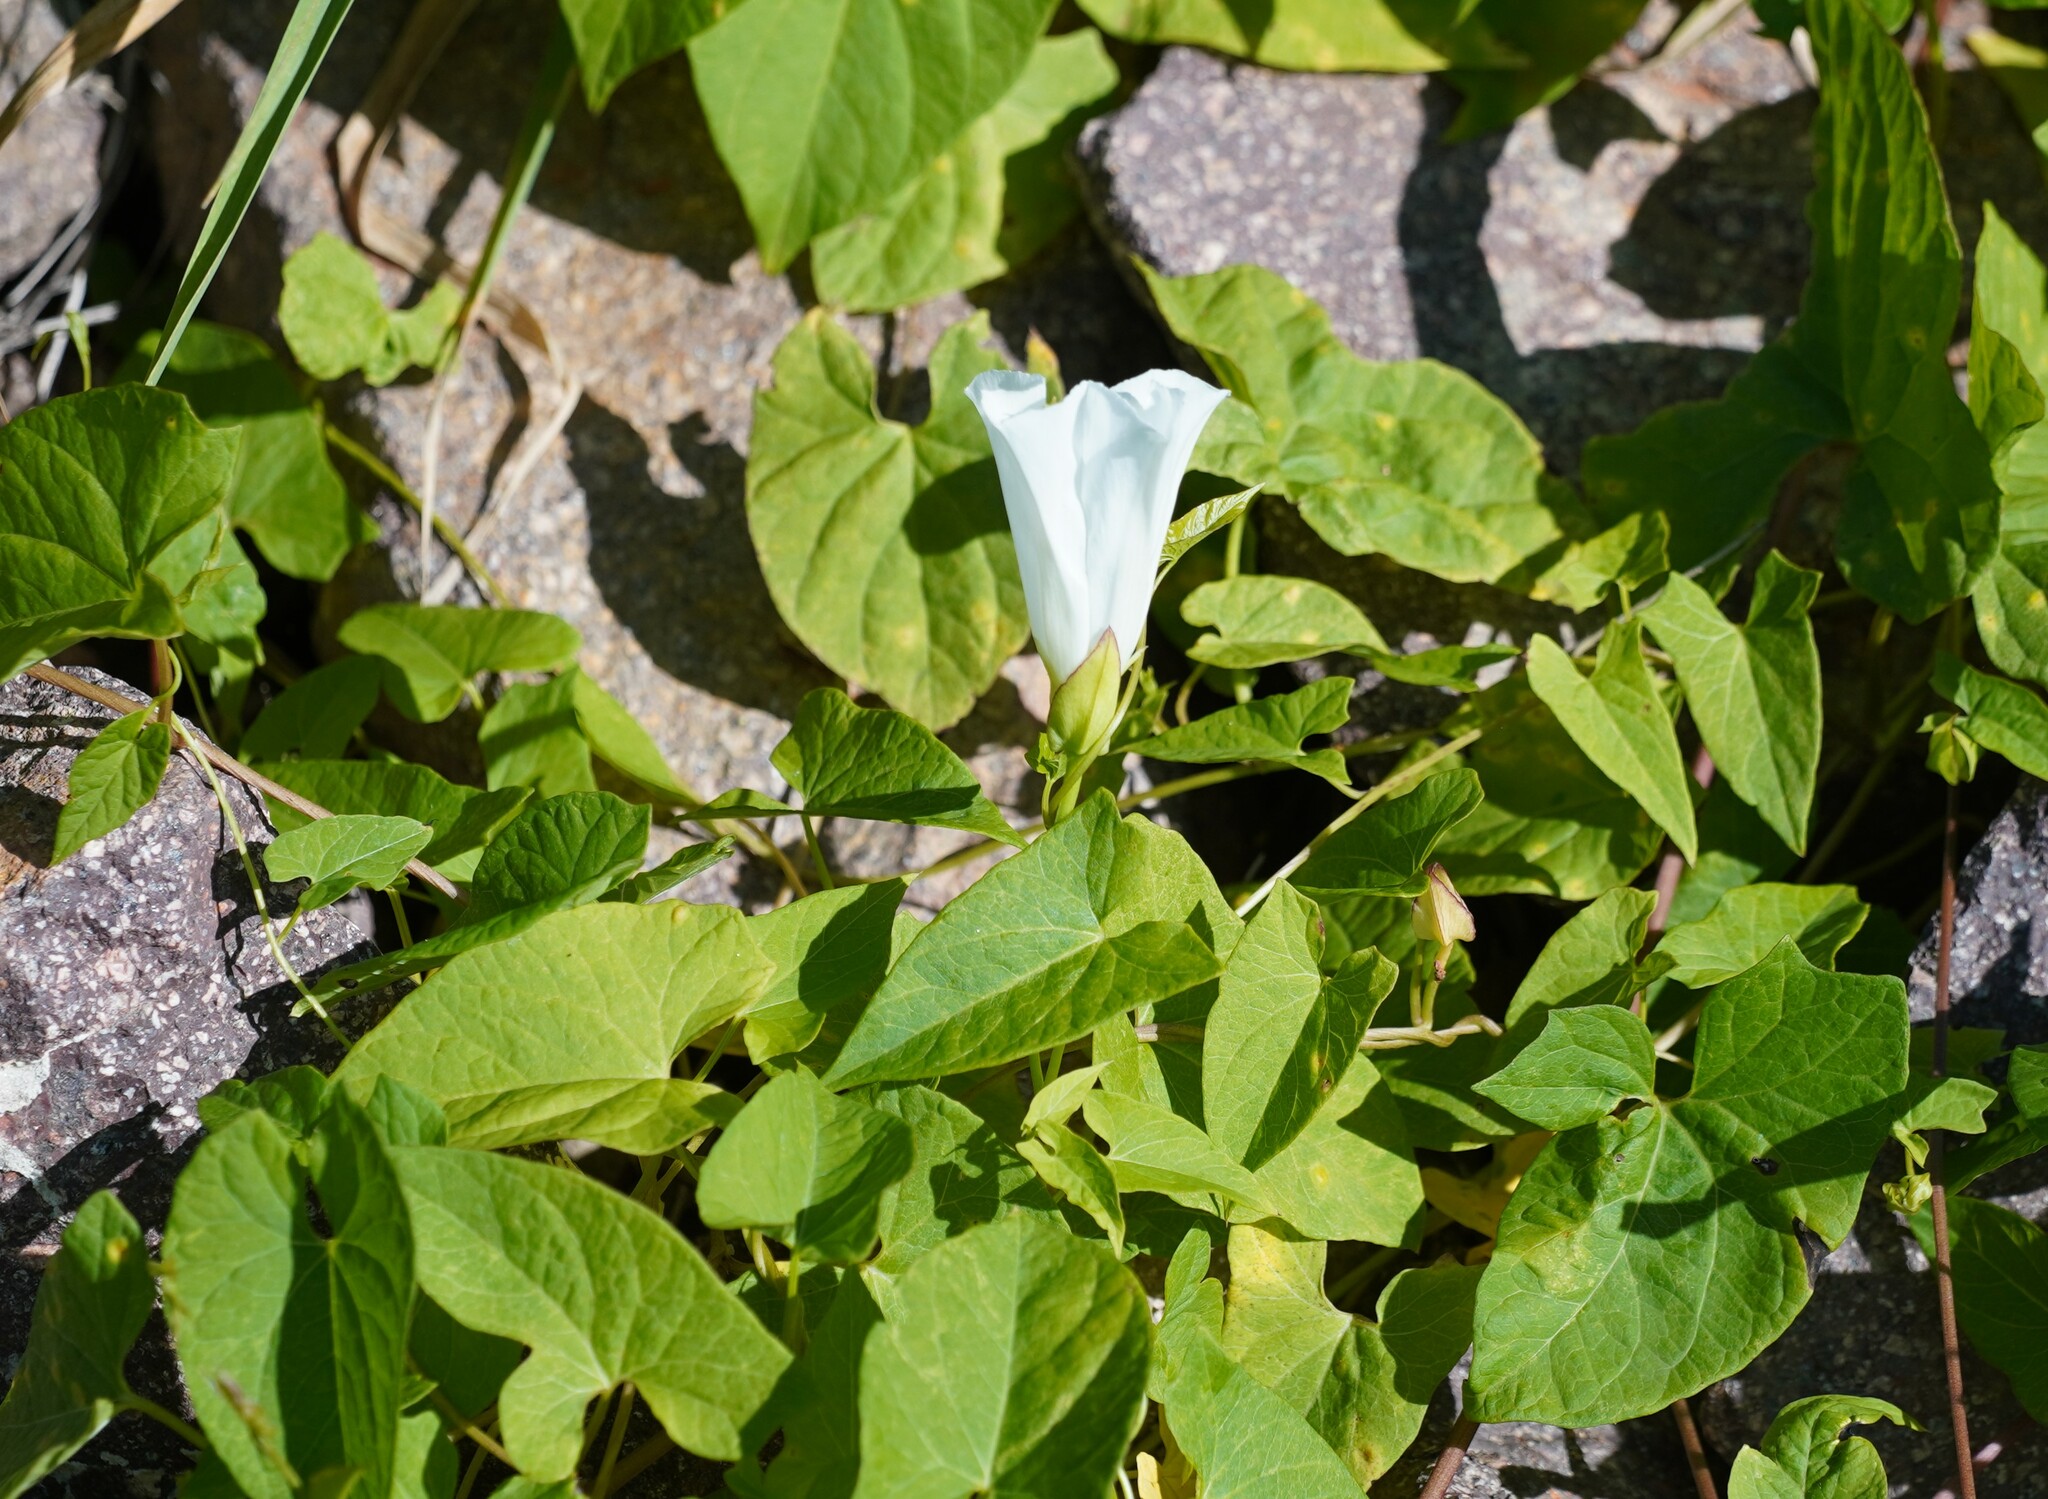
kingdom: Plantae
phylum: Tracheophyta
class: Magnoliopsida
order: Solanales
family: Convolvulaceae
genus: Calystegia
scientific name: Calystegia sepium
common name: Hedge bindweed
